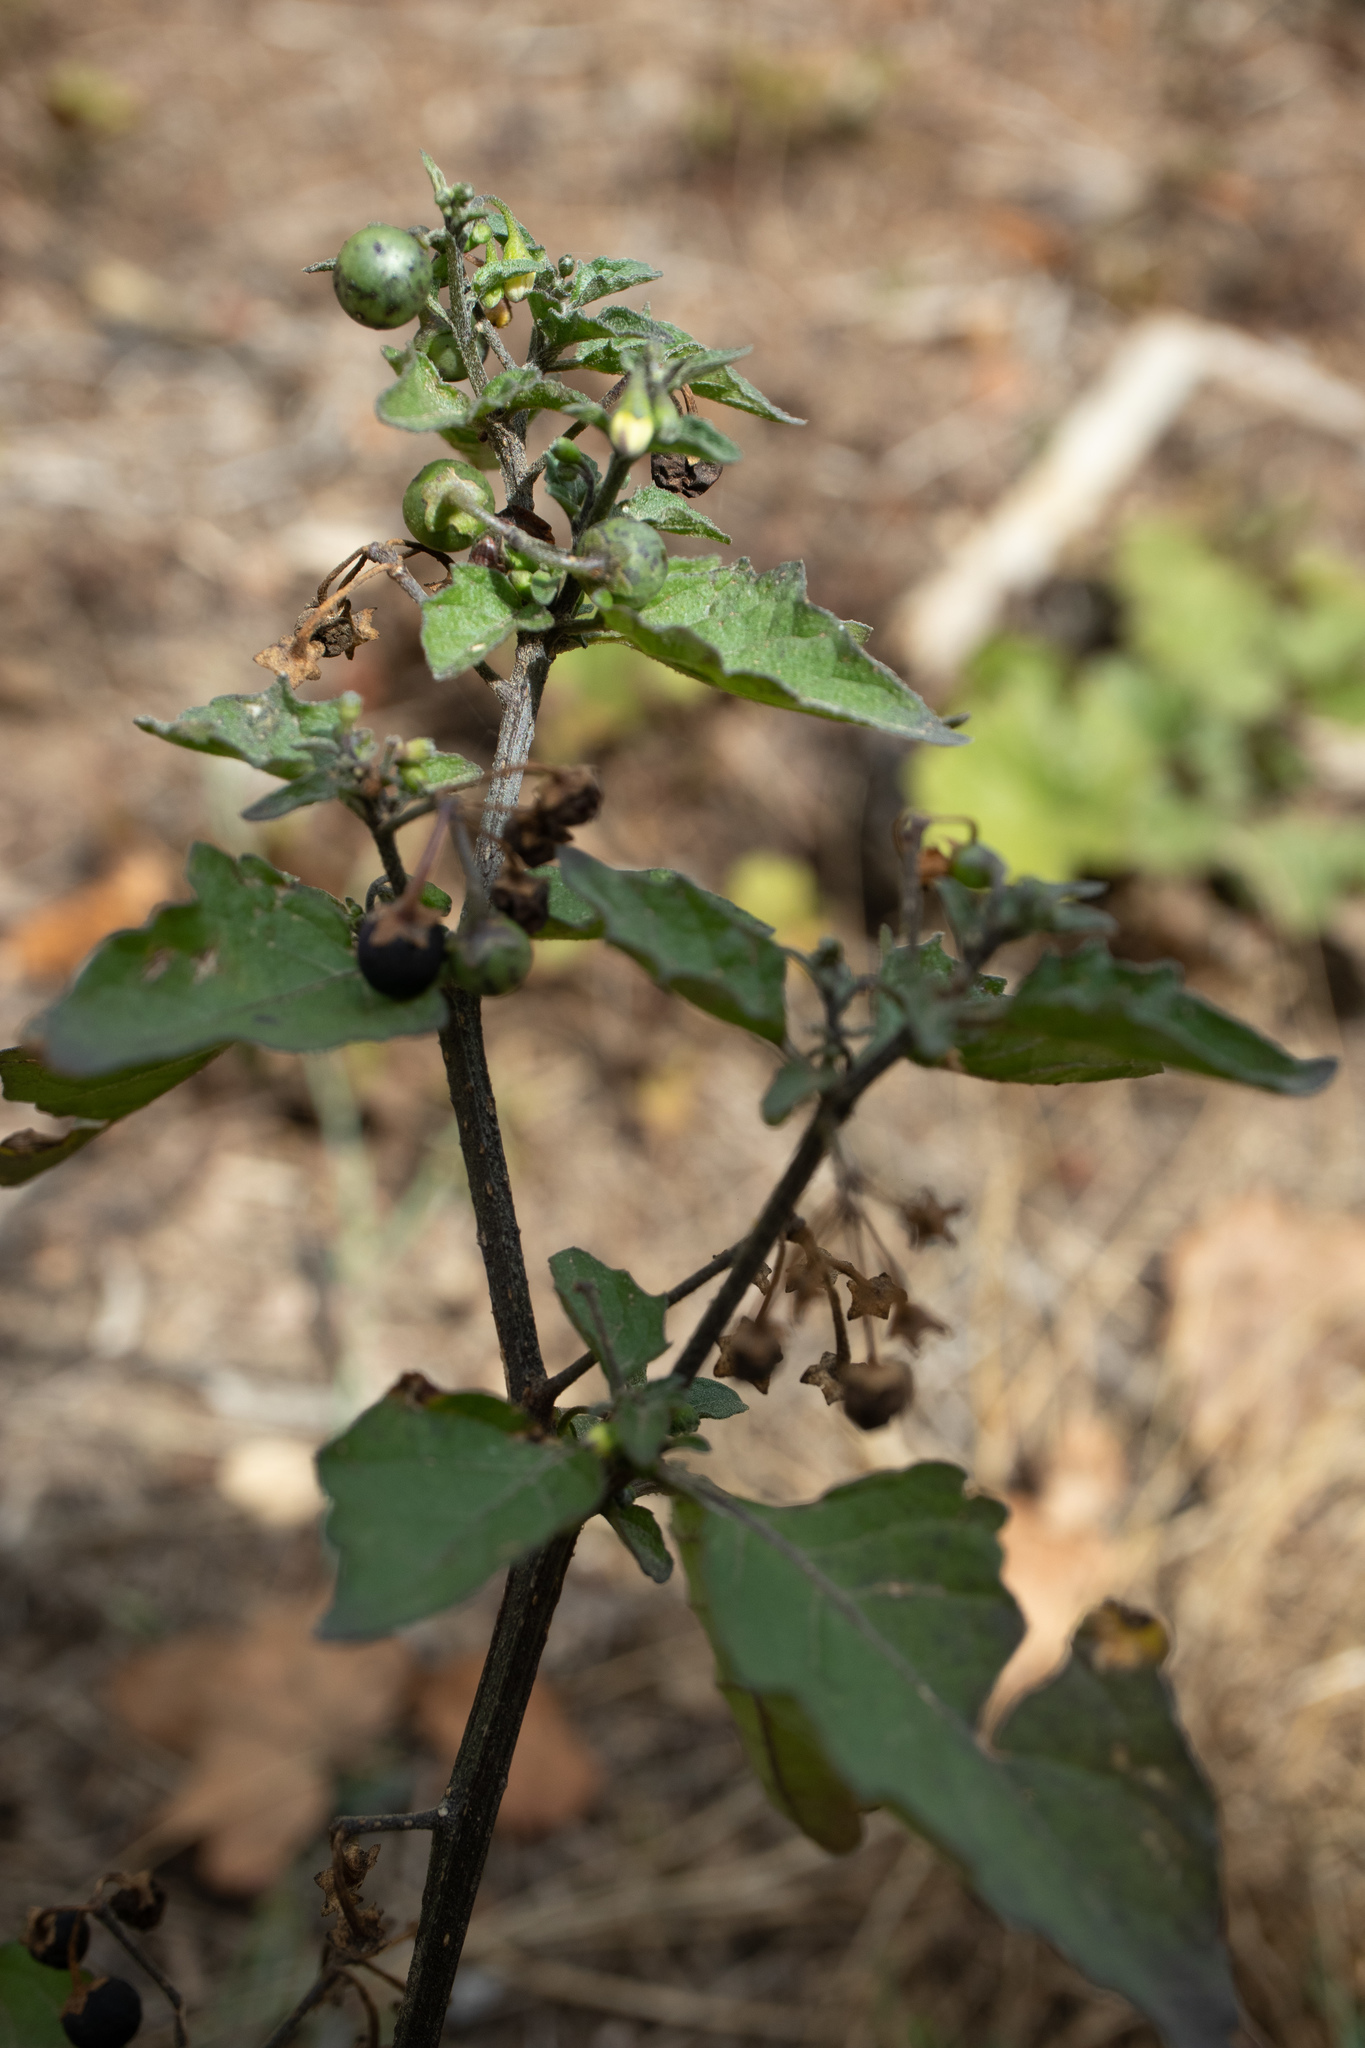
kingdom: Plantae
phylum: Tracheophyta
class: Magnoliopsida
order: Solanales
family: Solanaceae
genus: Solanum
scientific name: Solanum nigrum
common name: Black nightshade
